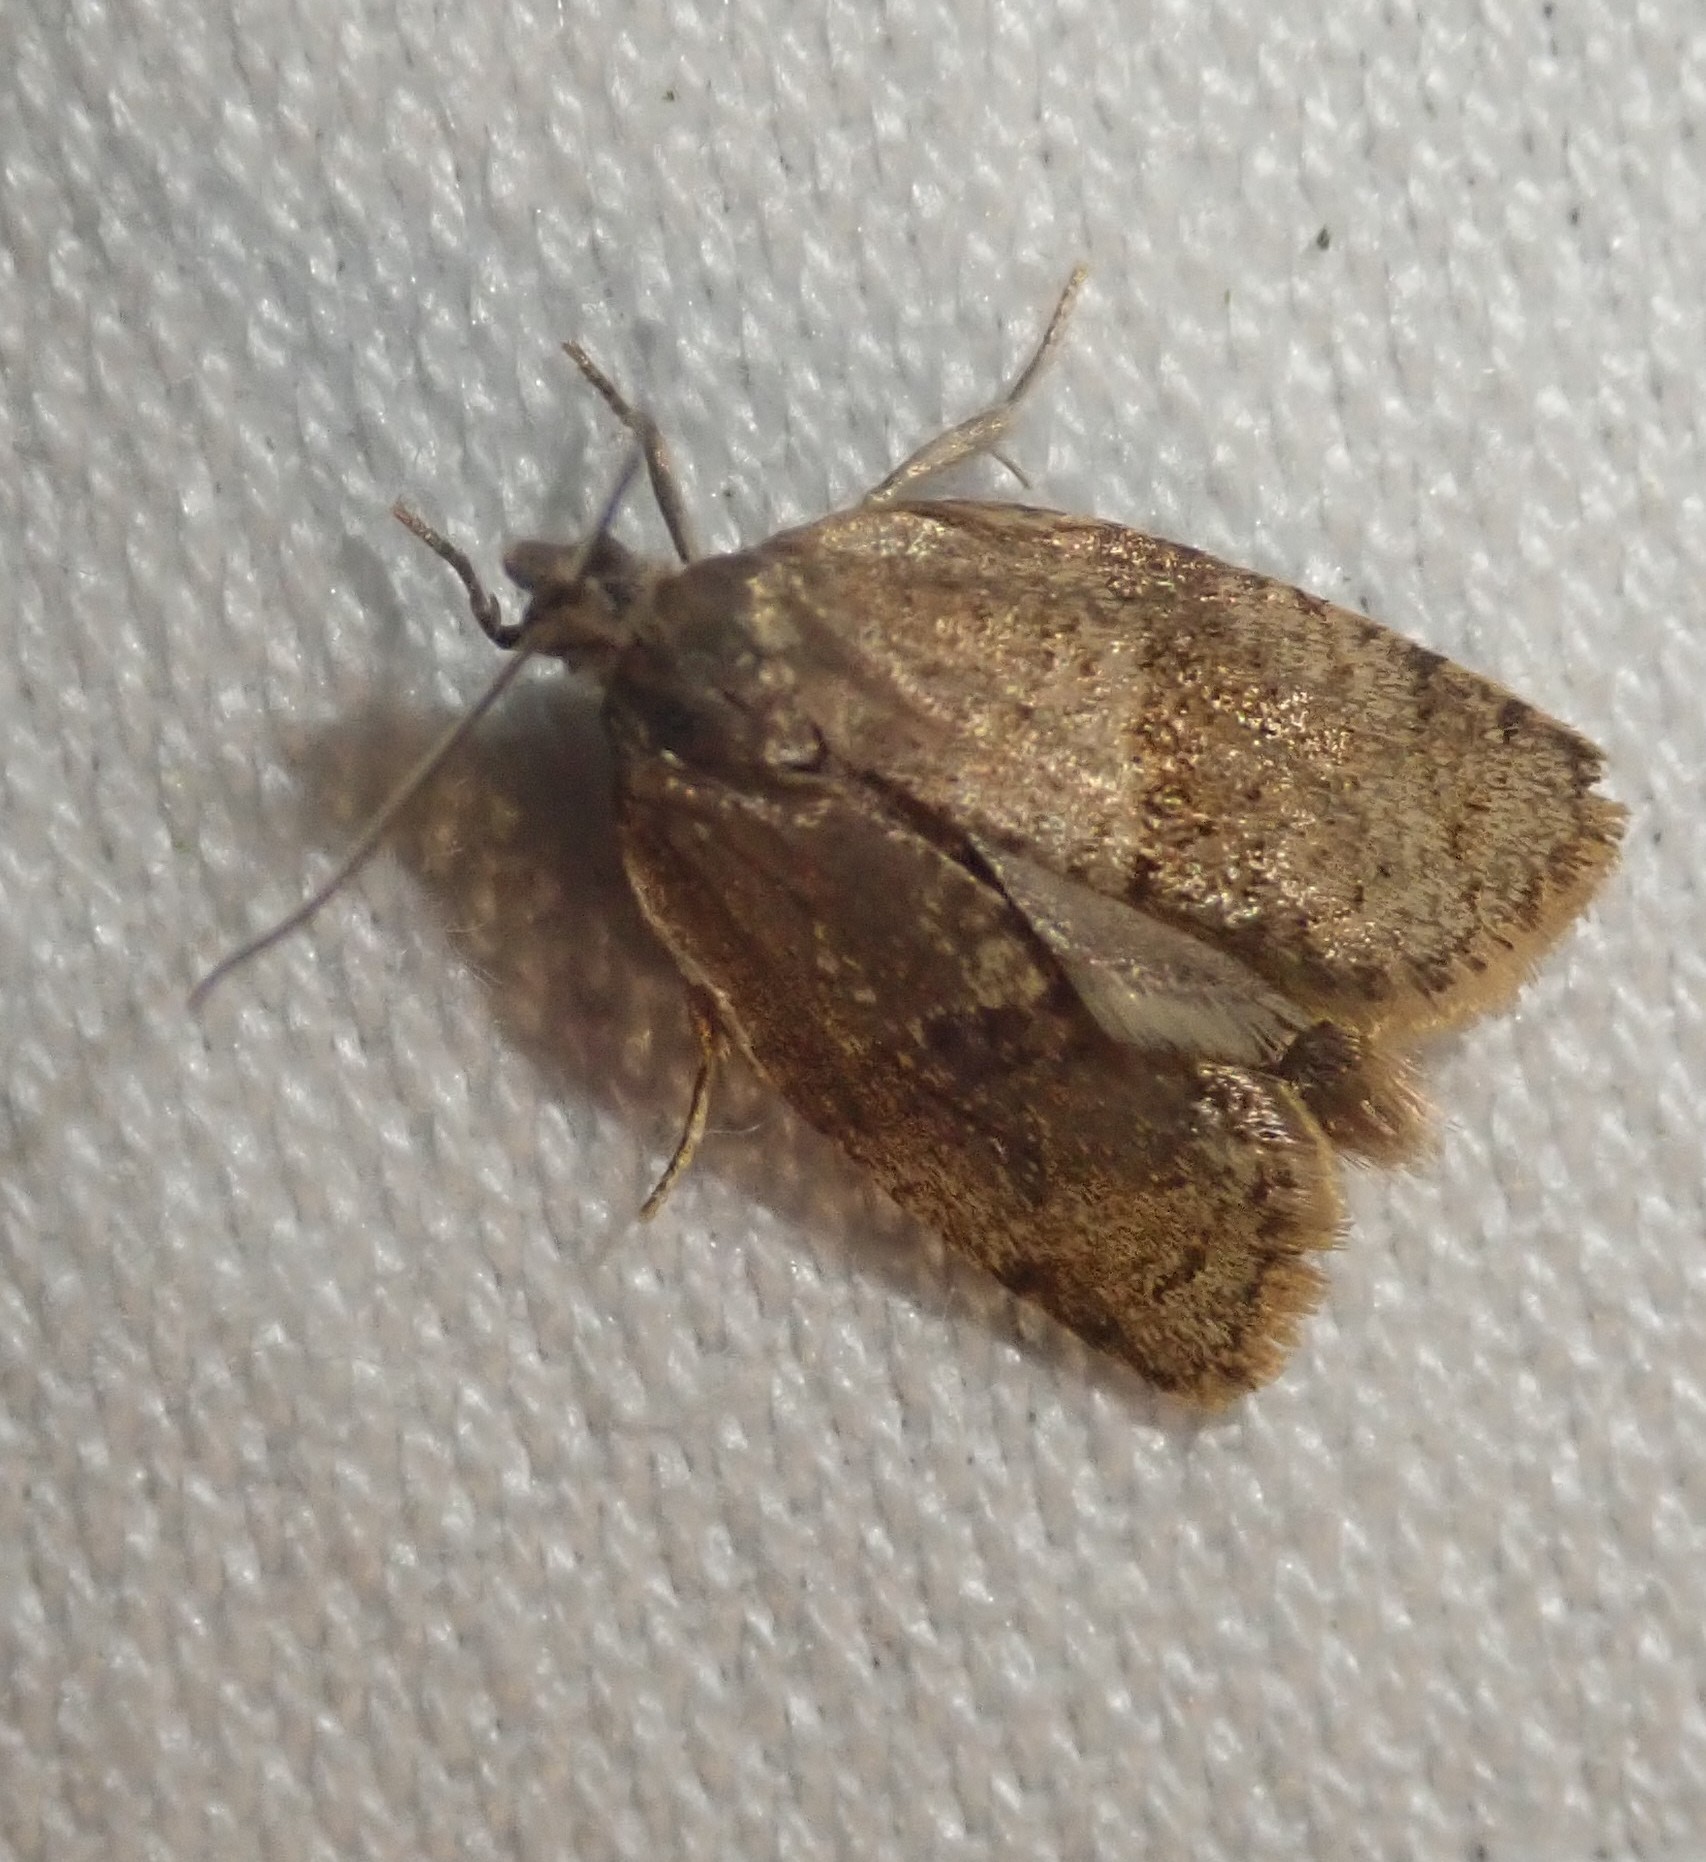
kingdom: Animalia
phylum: Arthropoda
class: Insecta
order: Lepidoptera
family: Tortricidae
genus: Syndemis
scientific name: Syndemis musculana
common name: Dark-barred twist
